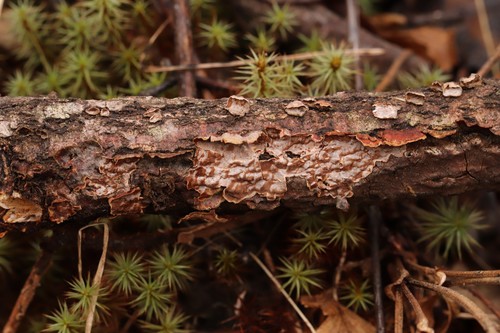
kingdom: Fungi
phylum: Basidiomycota
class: Agaricomycetes
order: Hymenochaetales
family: Hymenochaetaceae
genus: Hydnoporia
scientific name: Hydnoporia tabacina
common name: Willow glue
